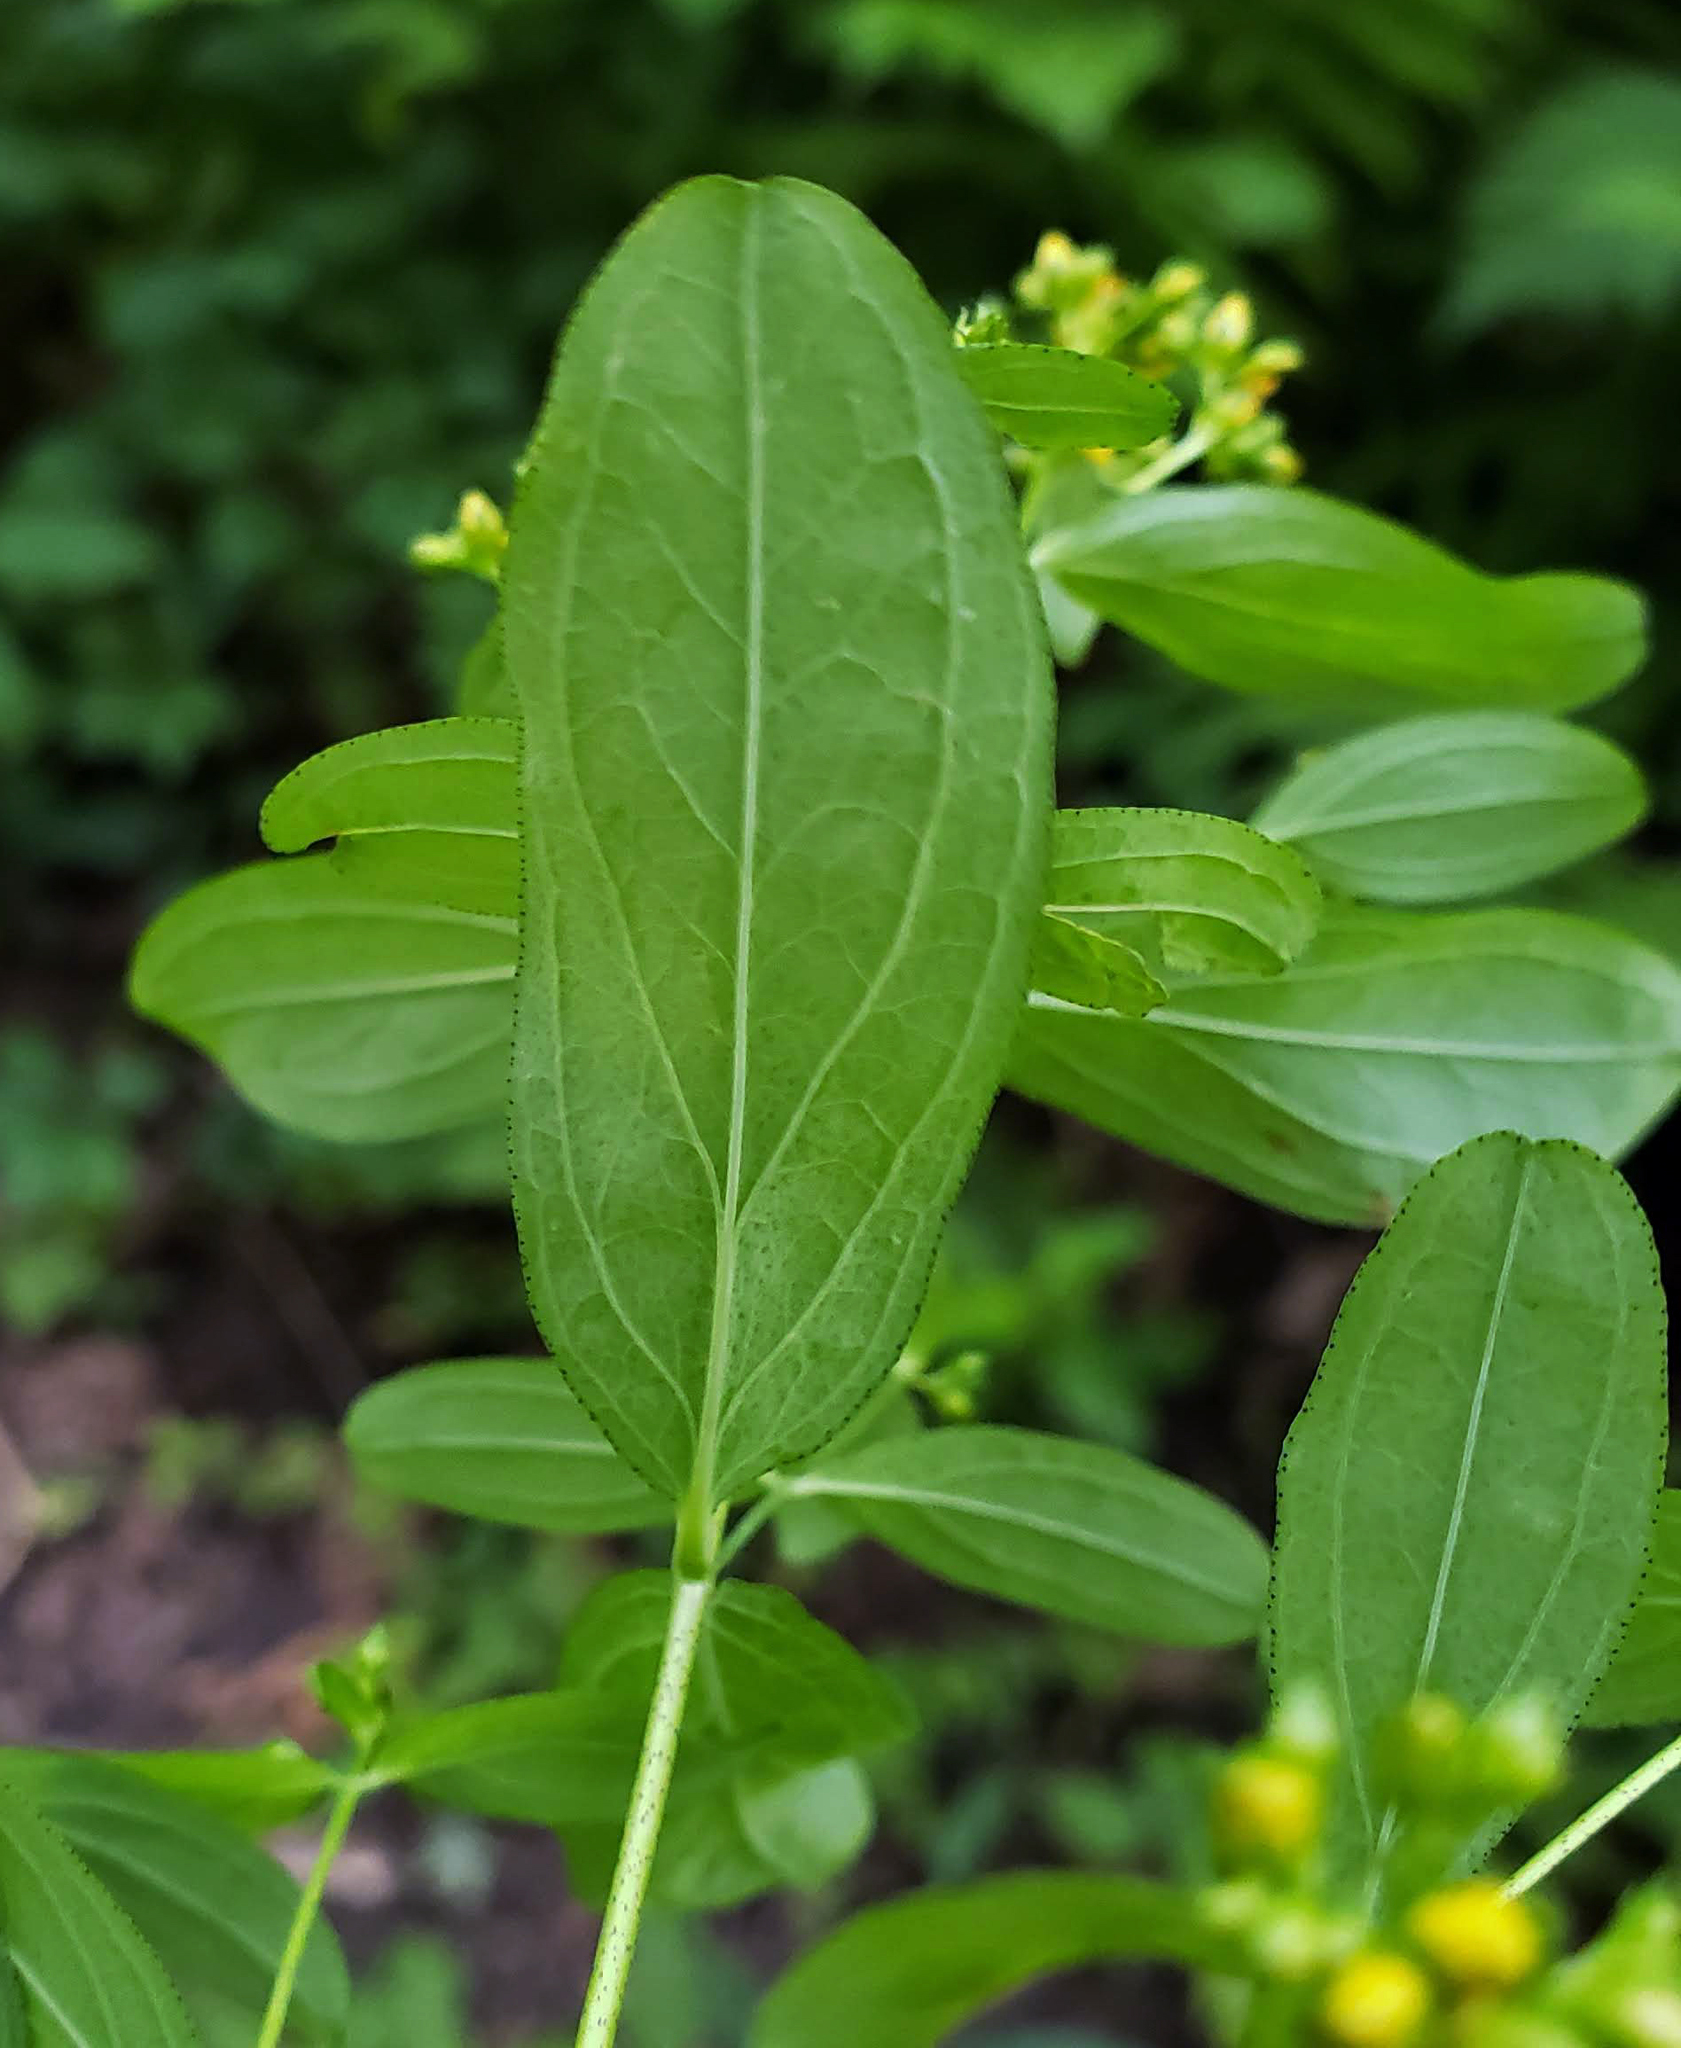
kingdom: Plantae
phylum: Tracheophyta
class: Magnoliopsida
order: Malpighiales
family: Hypericaceae
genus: Hypericum
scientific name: Hypericum punctatum
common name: Spotted st. john's-wort
